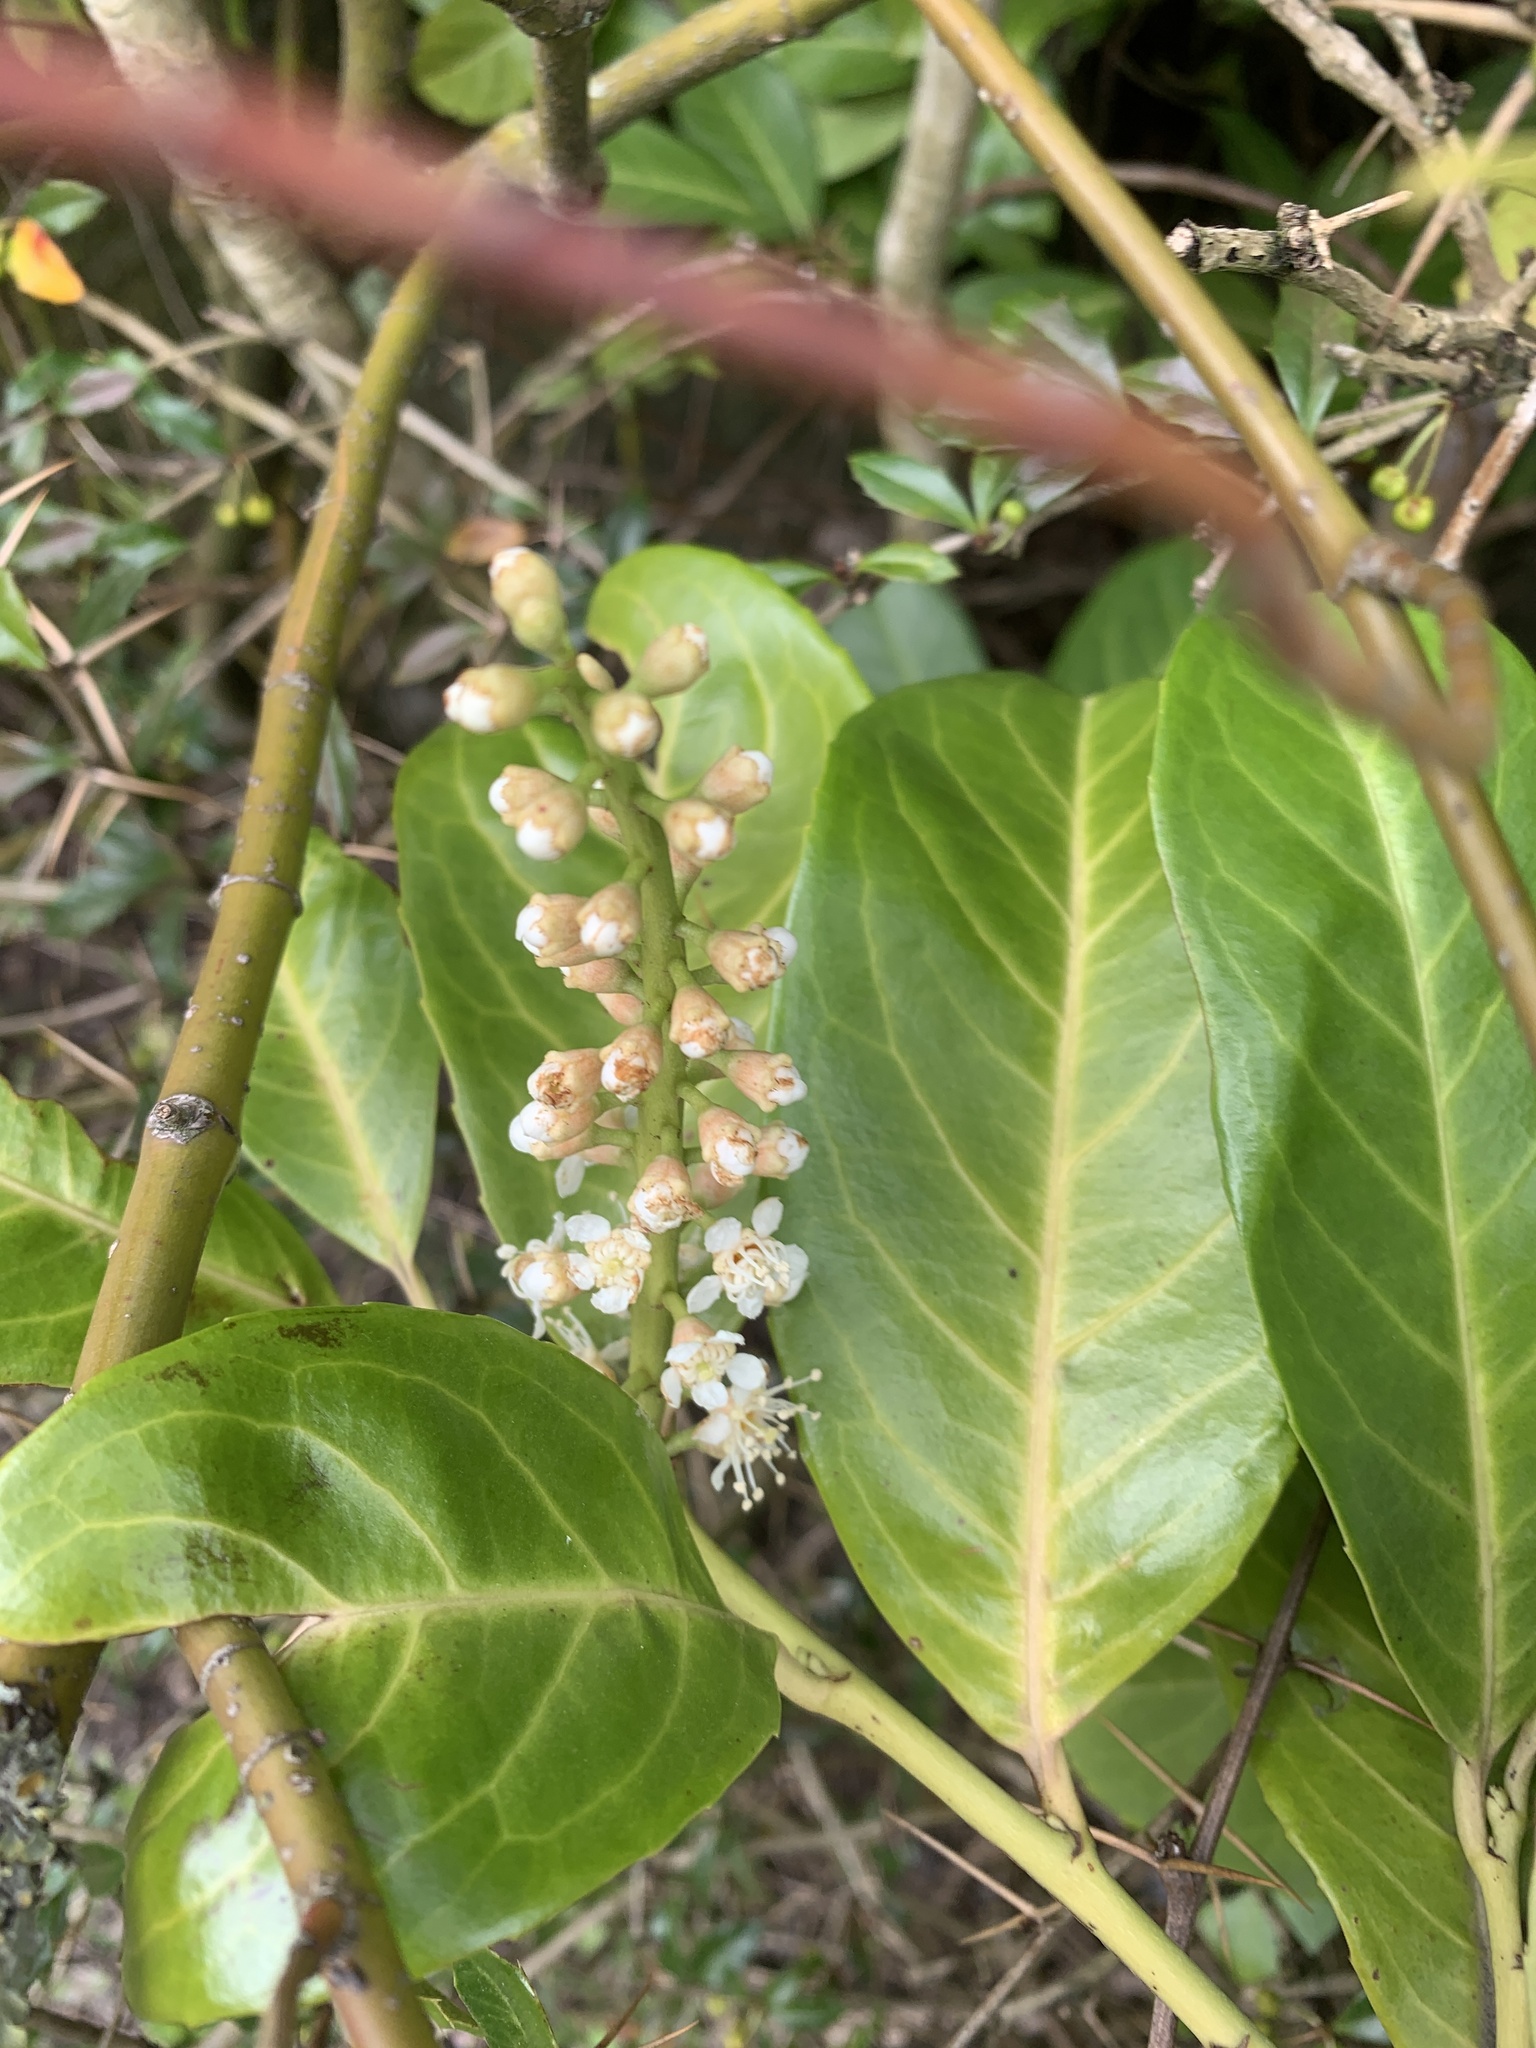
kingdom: Plantae
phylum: Tracheophyta
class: Magnoliopsida
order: Rosales
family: Rosaceae
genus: Prunus
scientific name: Prunus laurocerasus
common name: Cherry laurel
